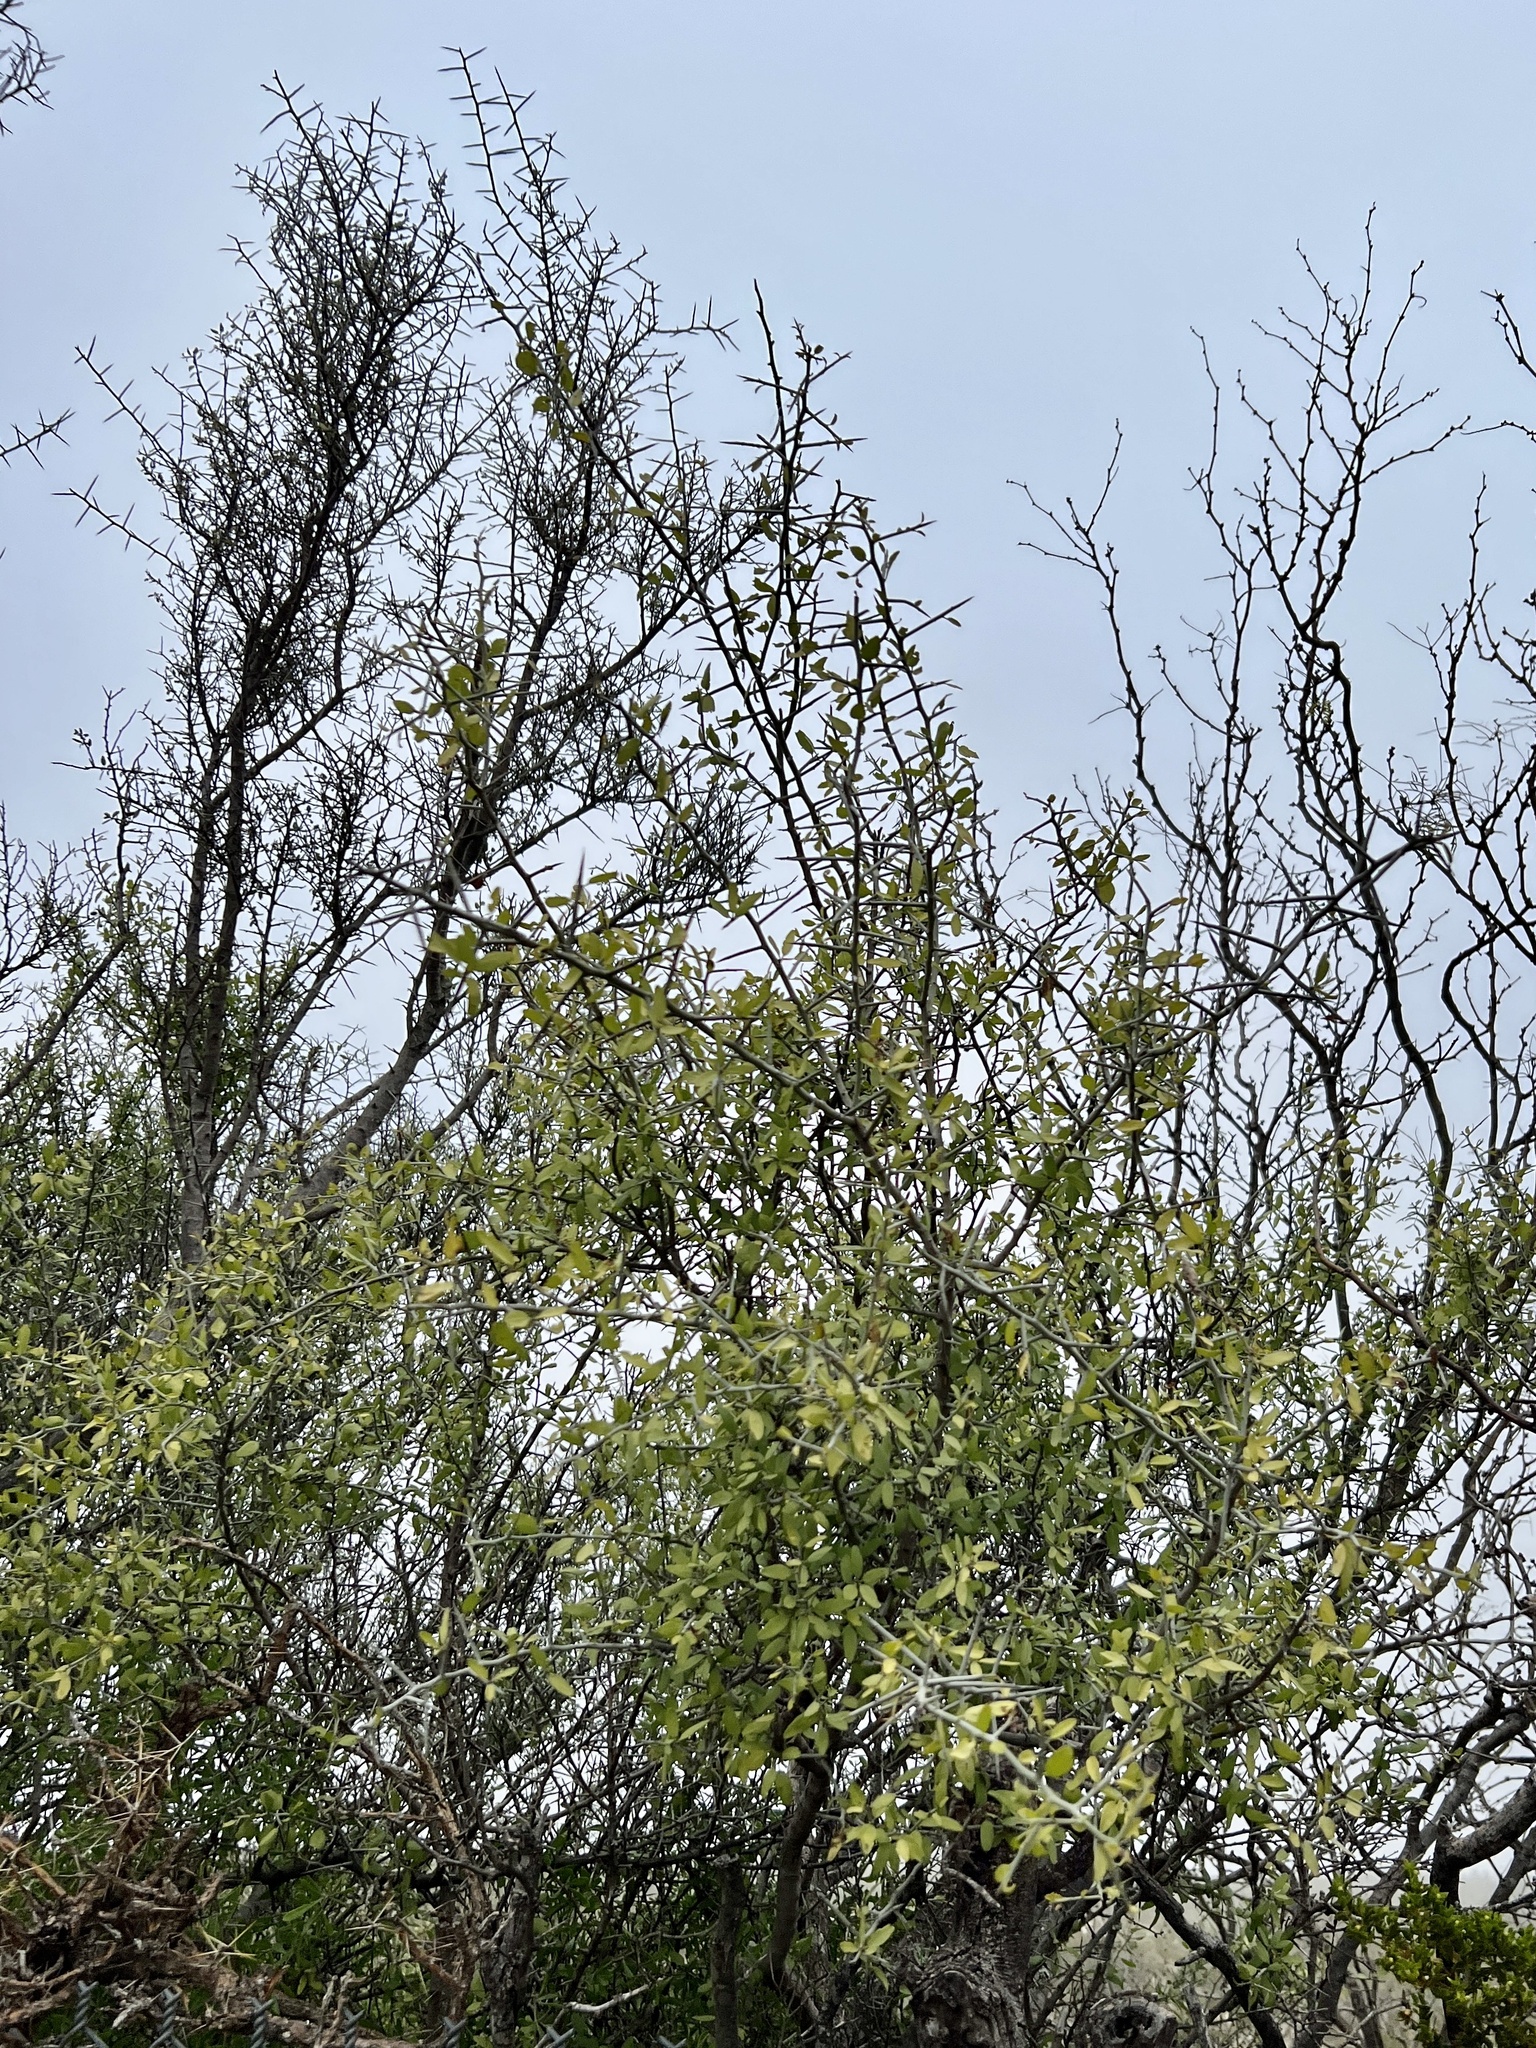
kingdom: Plantae
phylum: Tracheophyta
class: Magnoliopsida
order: Rosales
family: Rhamnaceae
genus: Sarcomphalus
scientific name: Sarcomphalus obtusifolius
